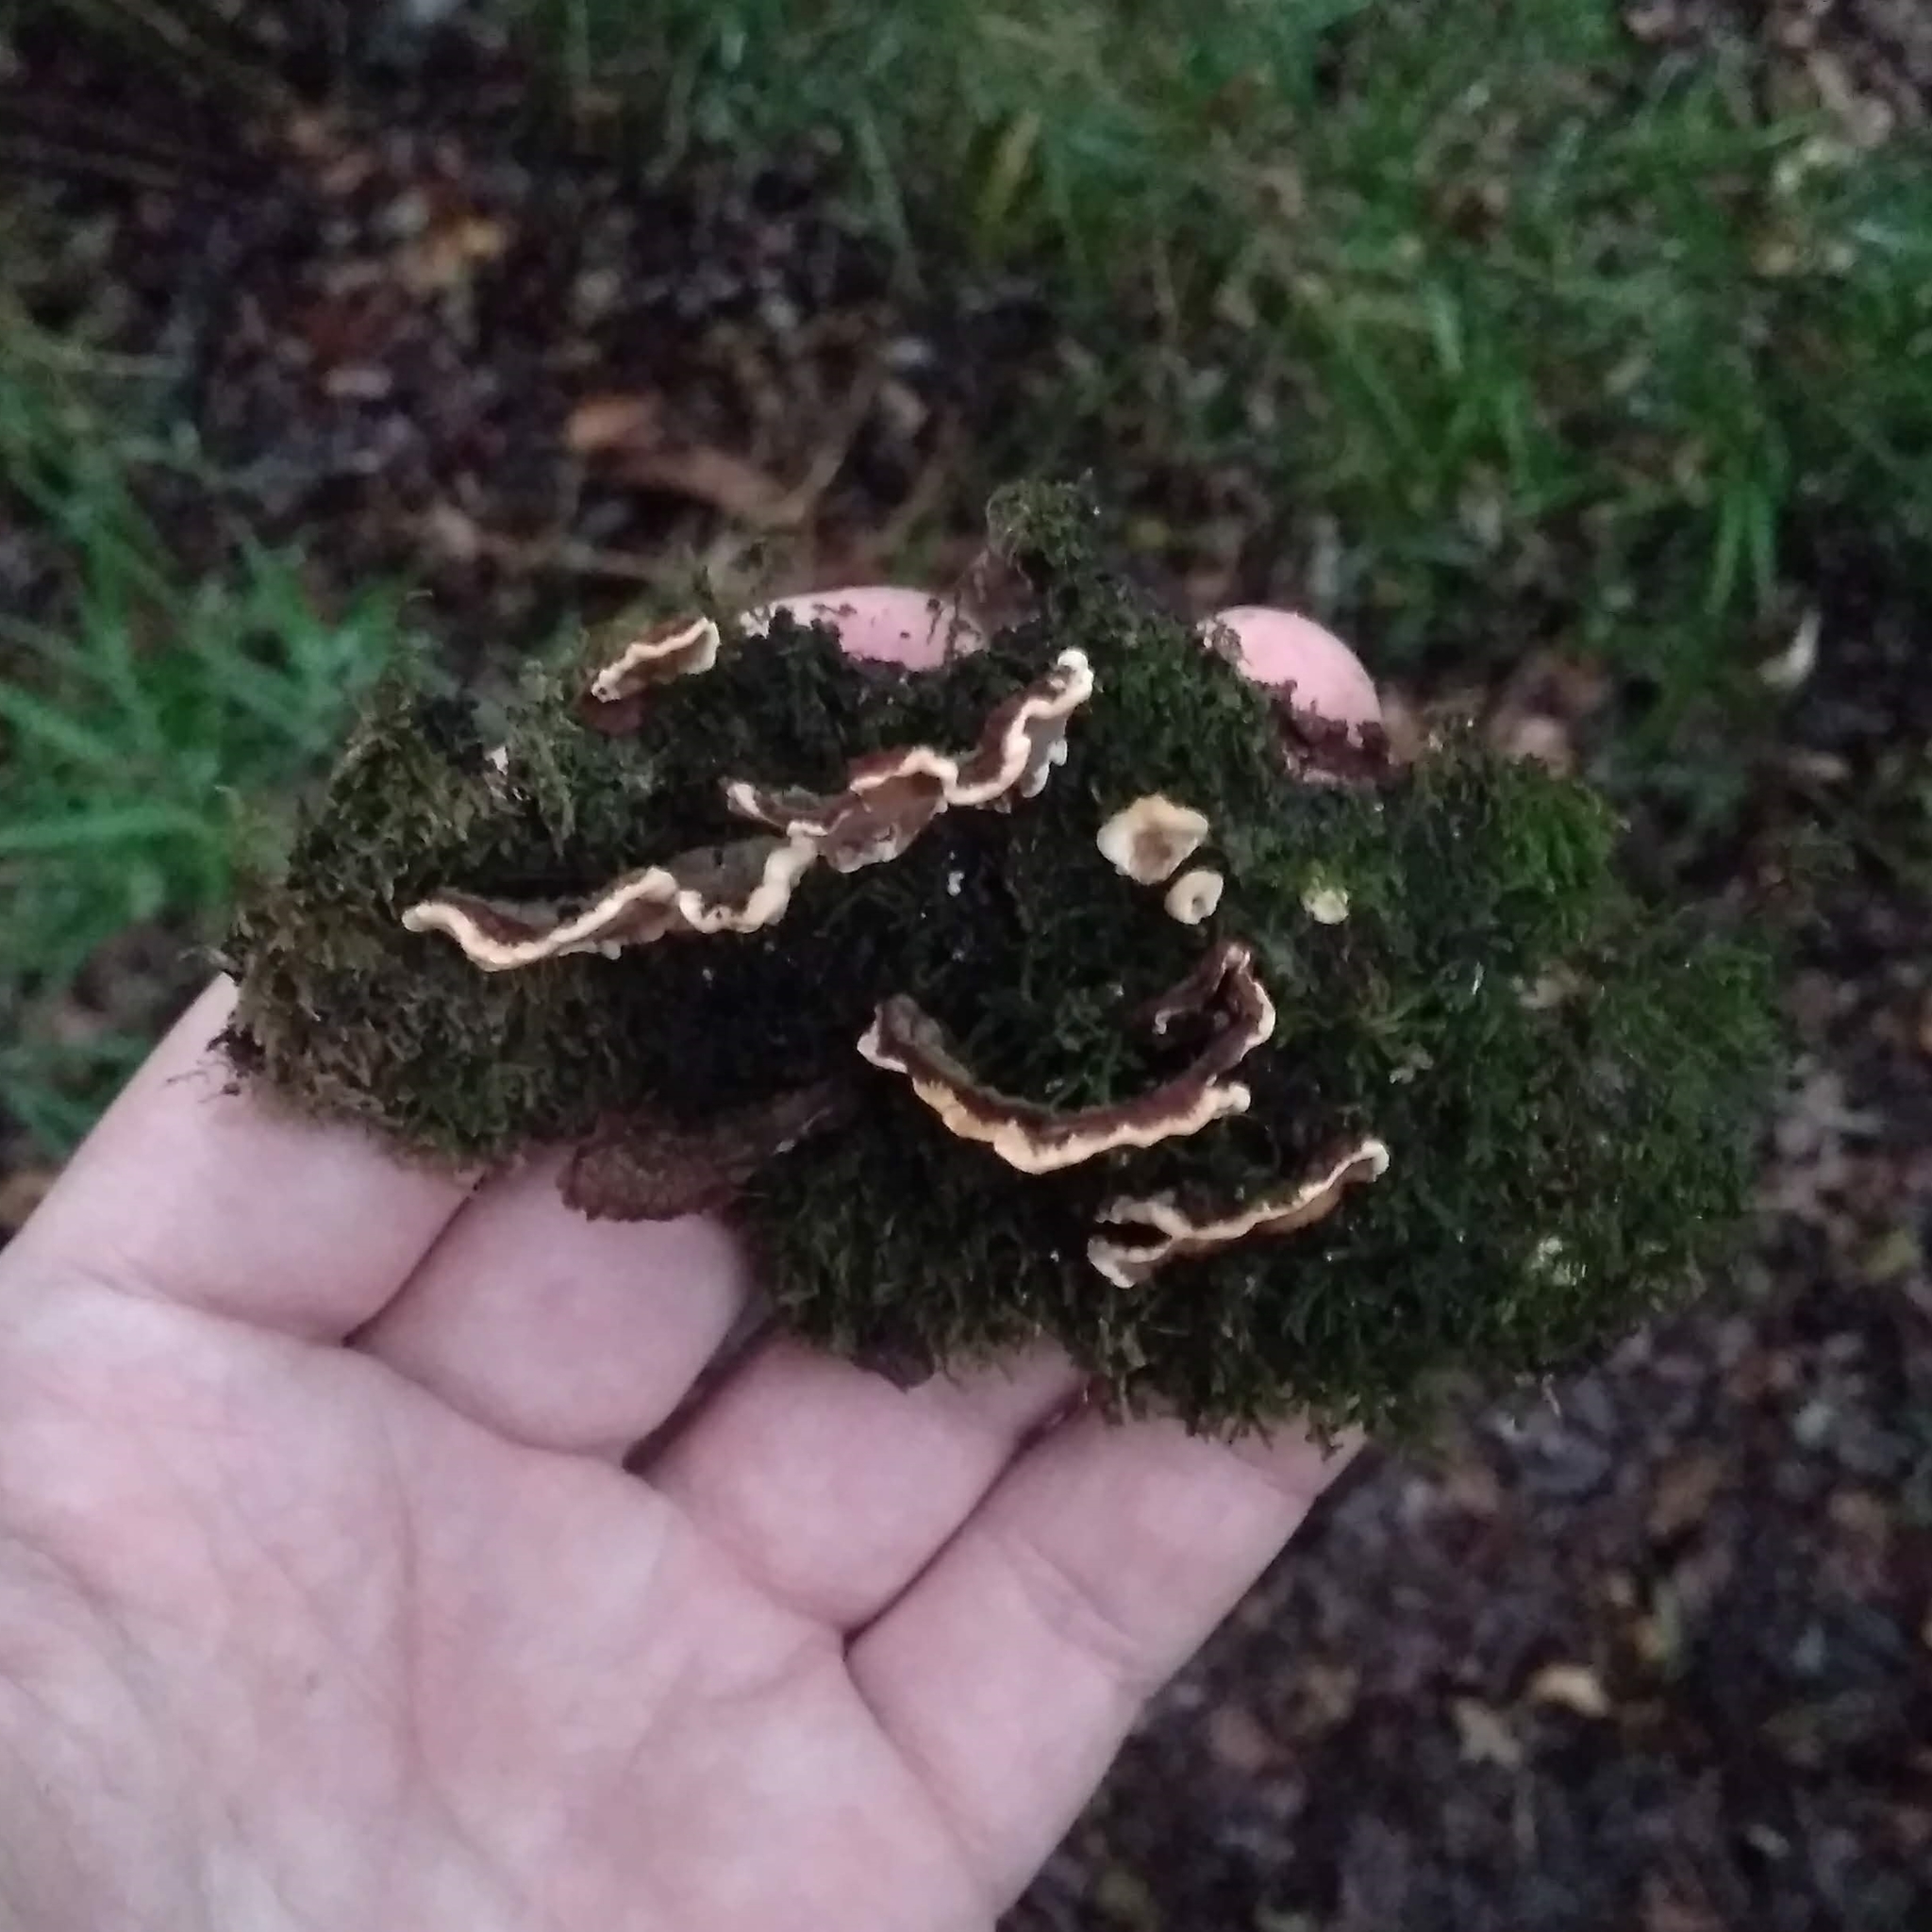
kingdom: Fungi
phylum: Basidiomycota
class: Agaricomycetes
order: Russulales
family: Stereaceae
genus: Stereum
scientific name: Stereum hirsutum
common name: Hairy curtain crust
